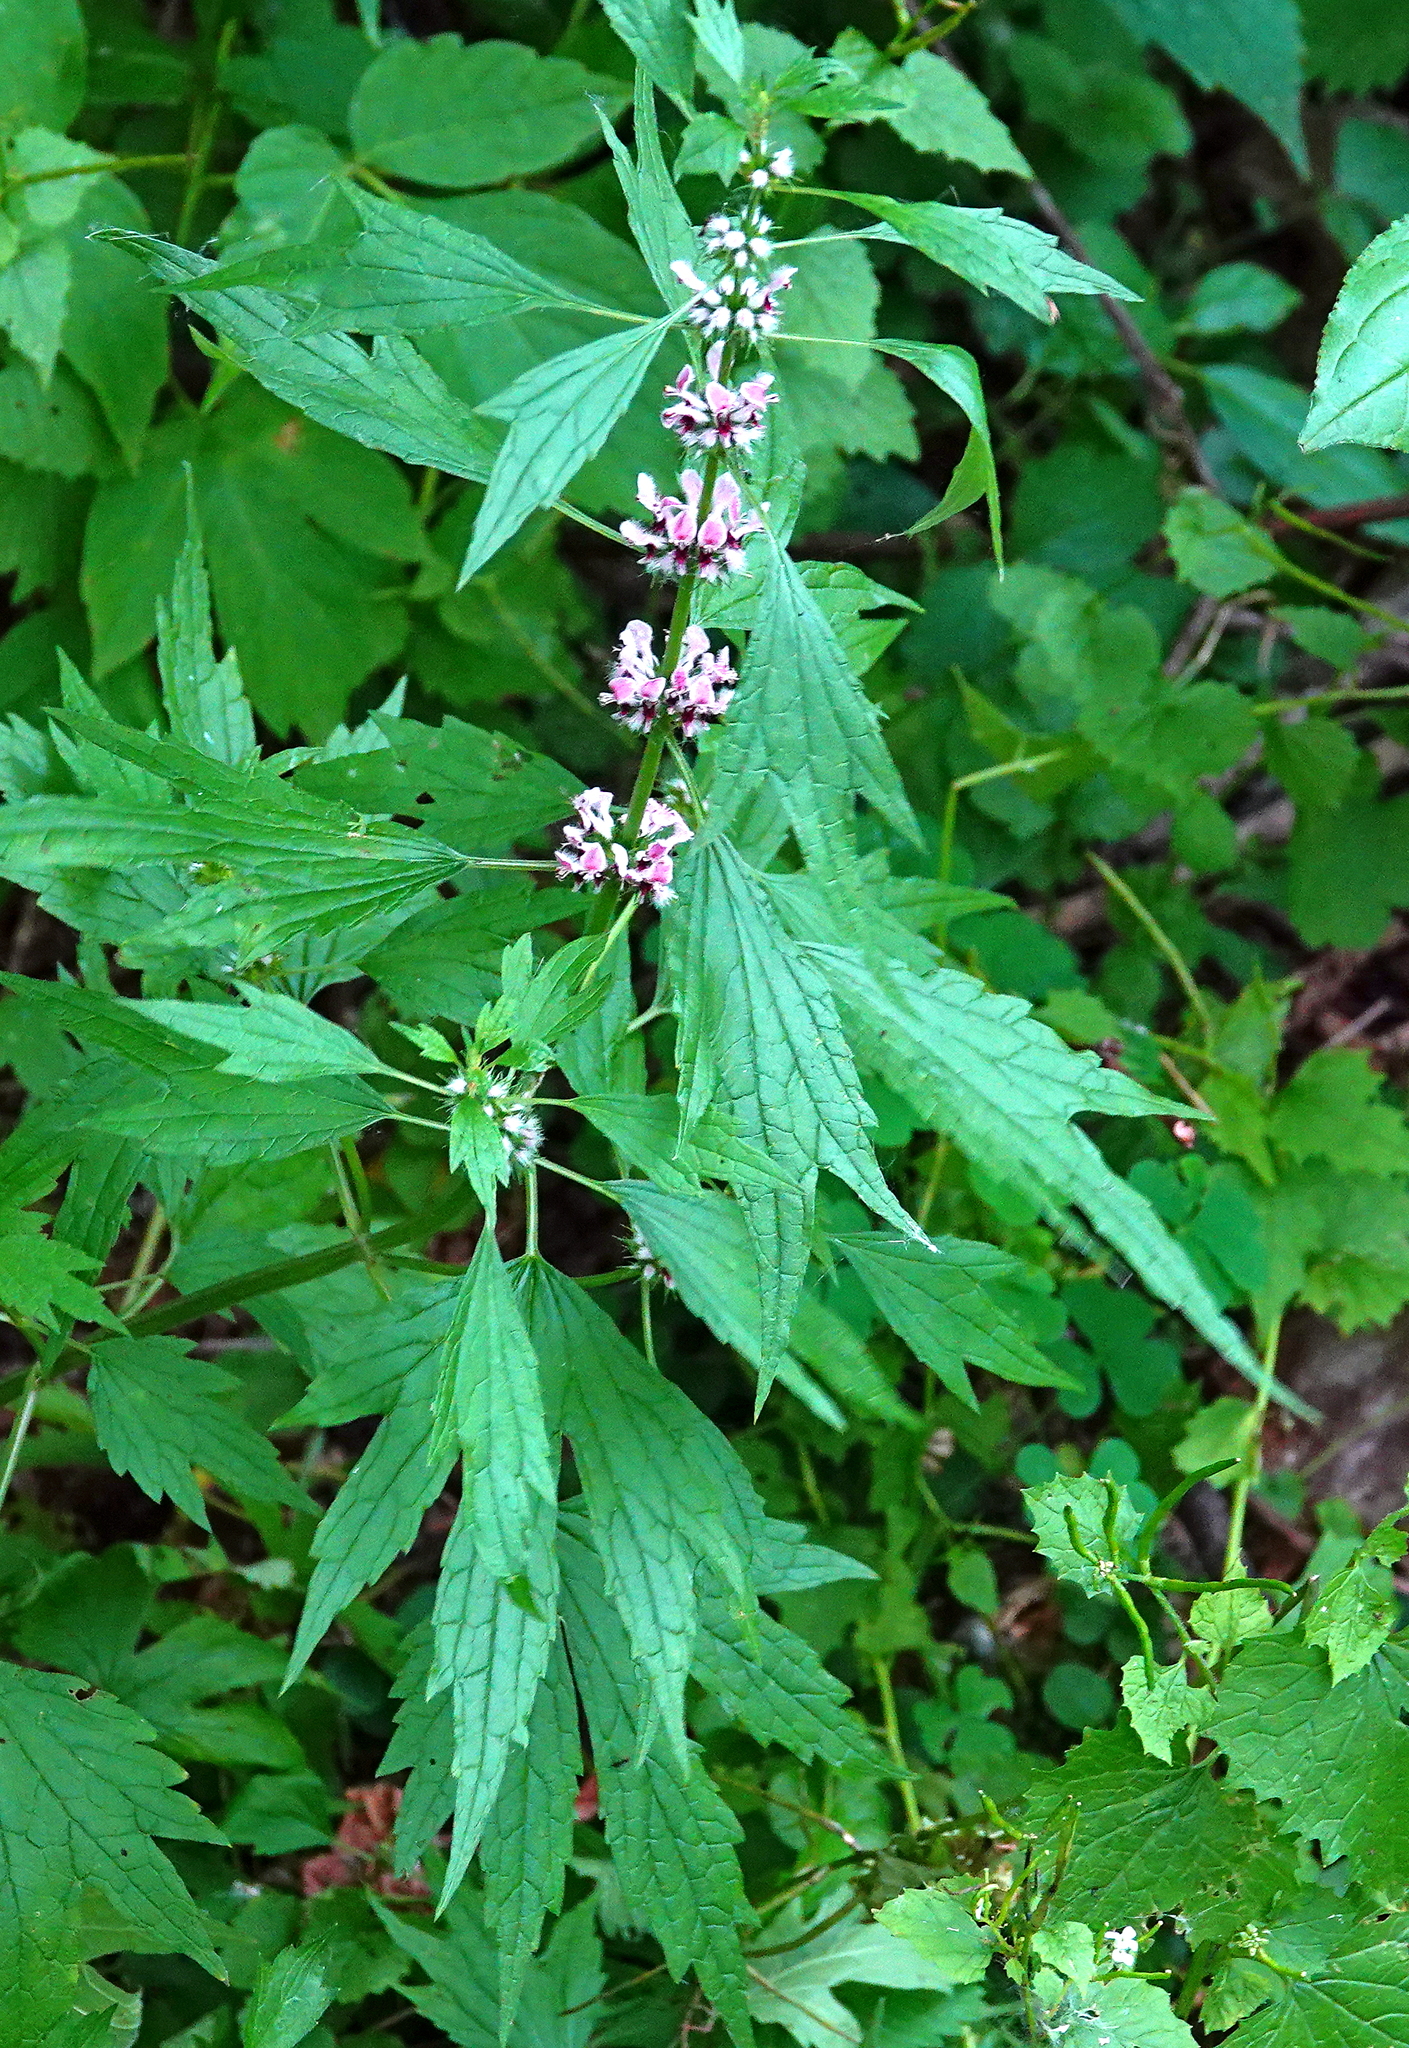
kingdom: Plantae
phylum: Tracheophyta
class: Magnoliopsida
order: Lamiales
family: Lamiaceae
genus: Leonurus
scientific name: Leonurus cardiaca
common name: Motherwort
